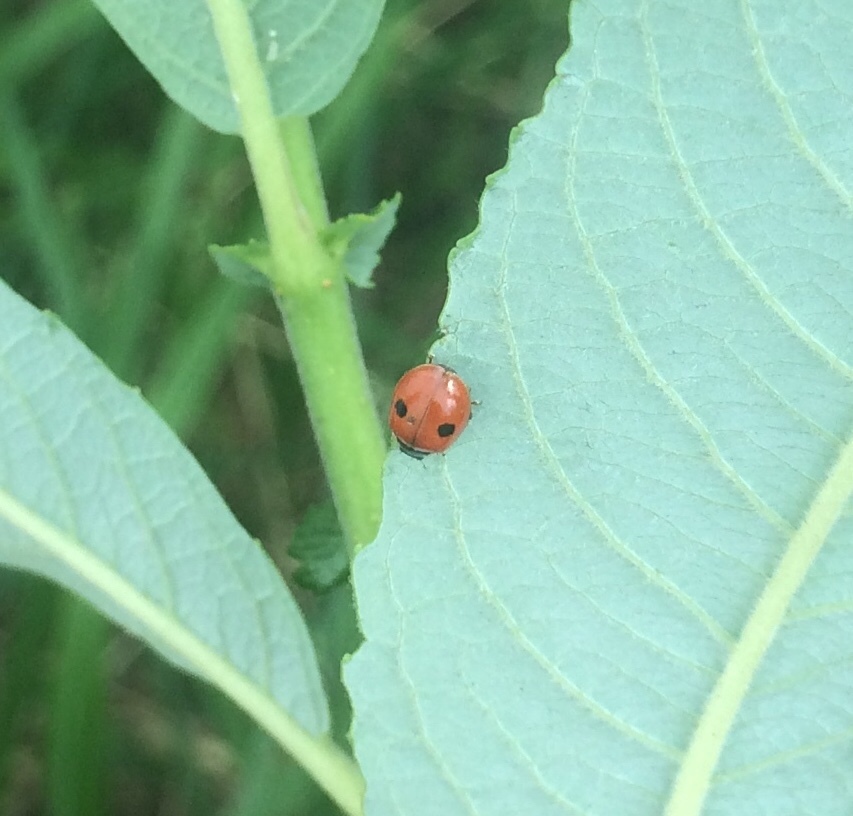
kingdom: Animalia
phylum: Arthropoda
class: Insecta
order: Coleoptera
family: Coccinellidae
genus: Adalia
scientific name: Adalia bipunctata
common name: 2-spot ladybird
